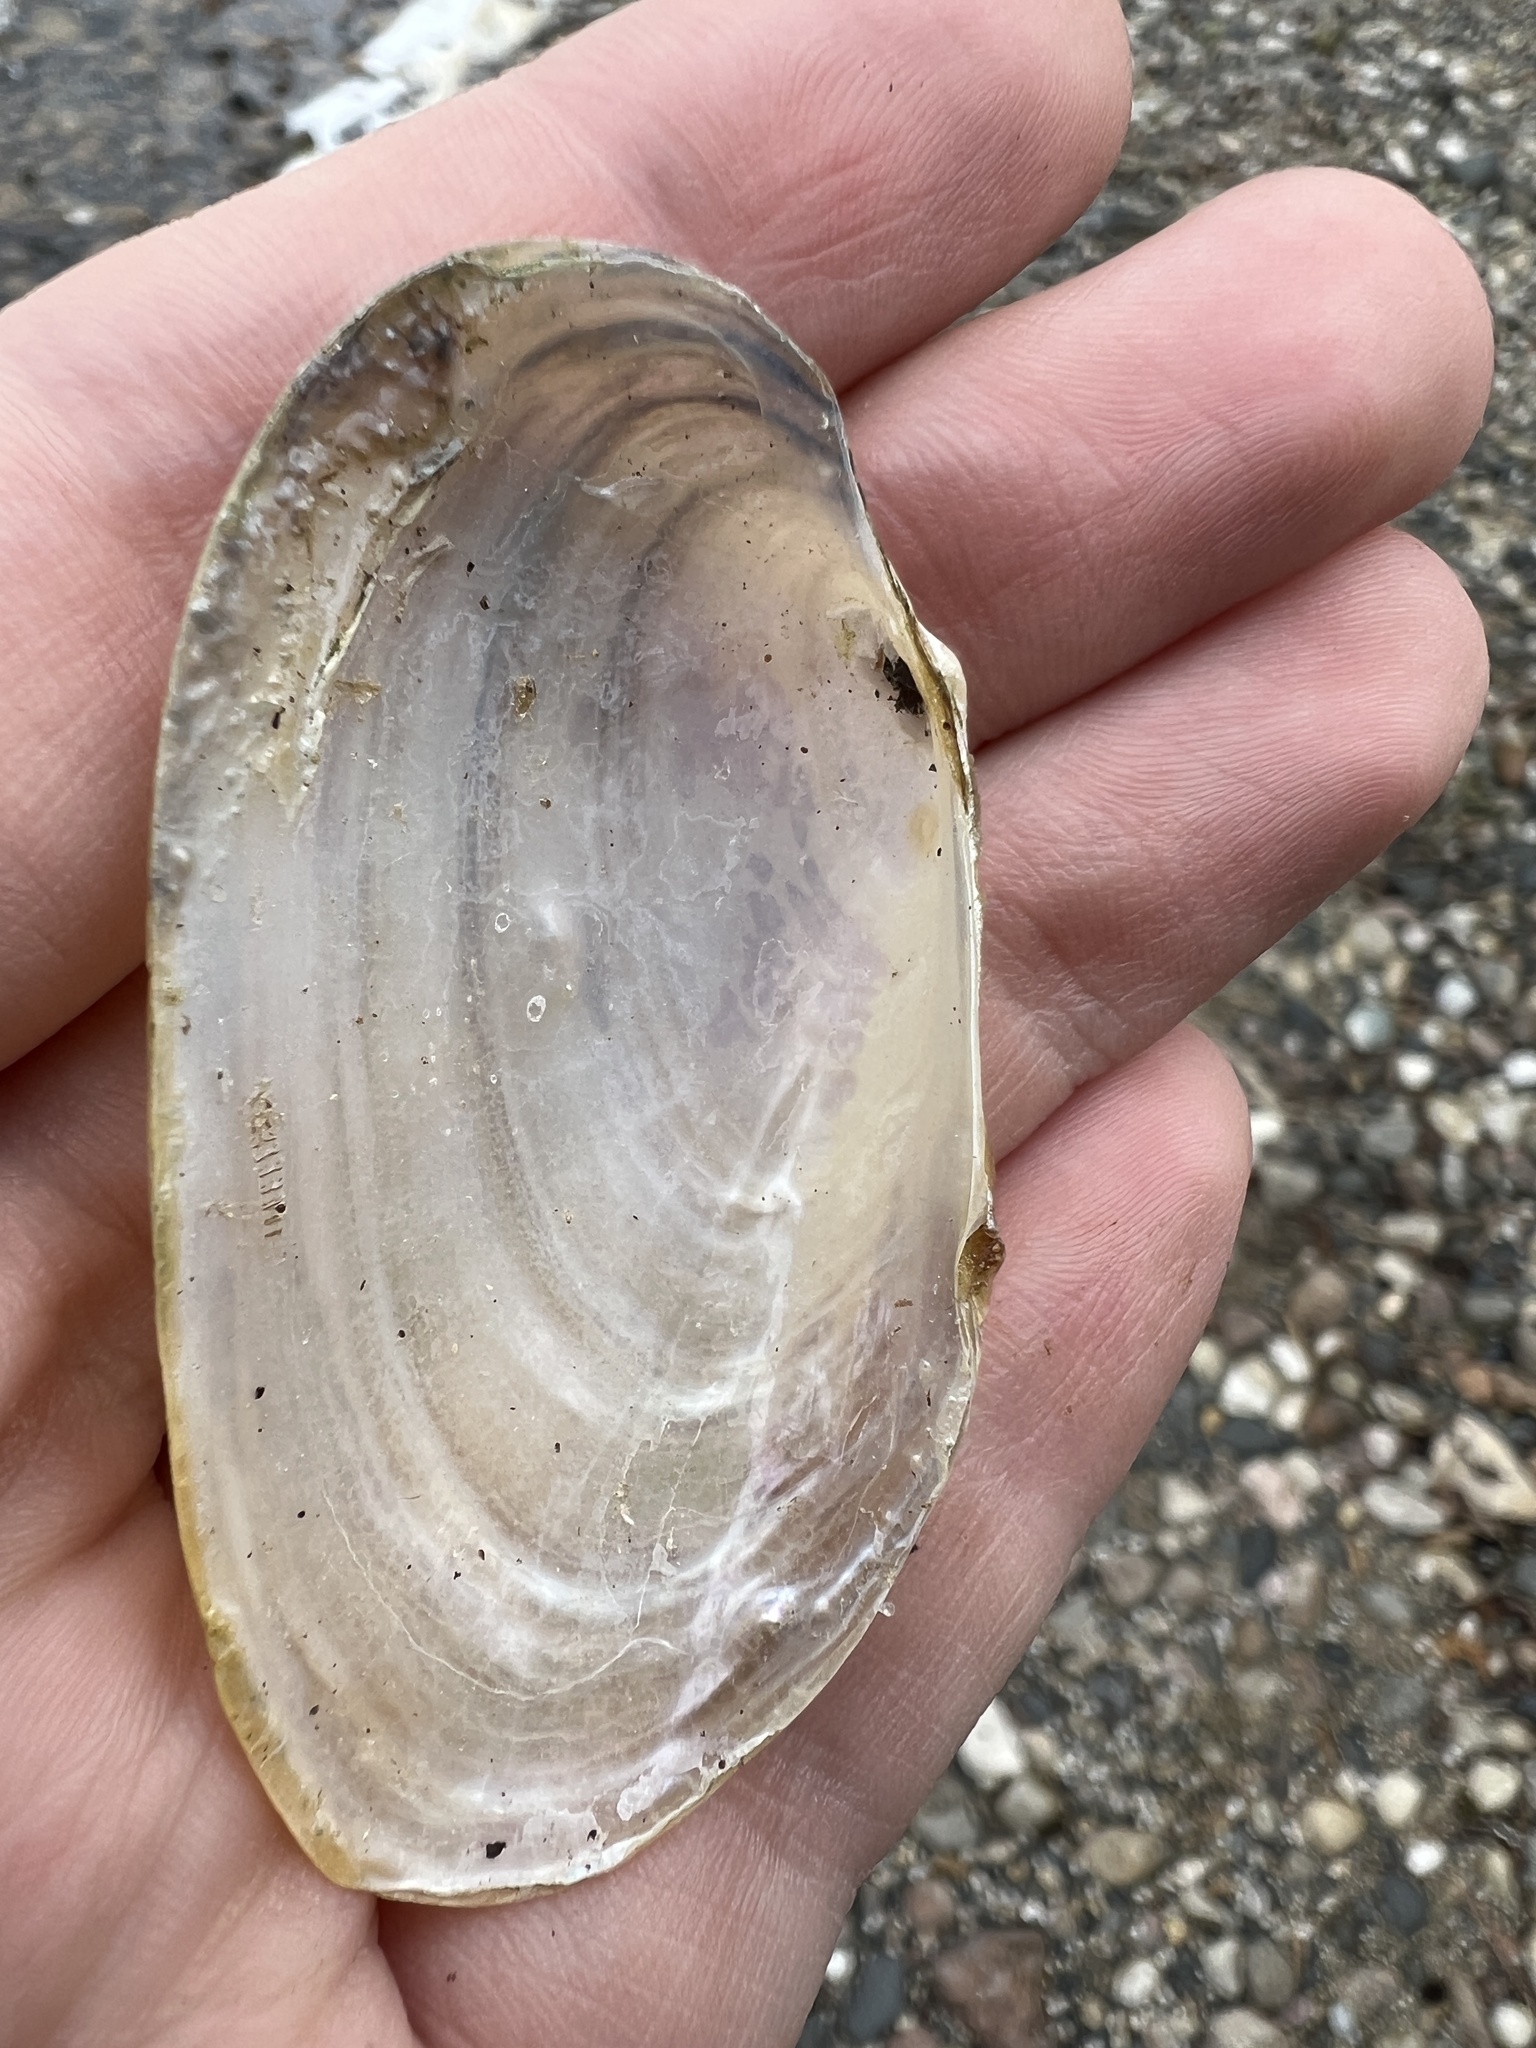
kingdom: Animalia
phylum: Mollusca
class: Bivalvia
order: Unionida
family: Unionidae
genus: Pyganodon
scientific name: Pyganodon grandis
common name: Giant floater
